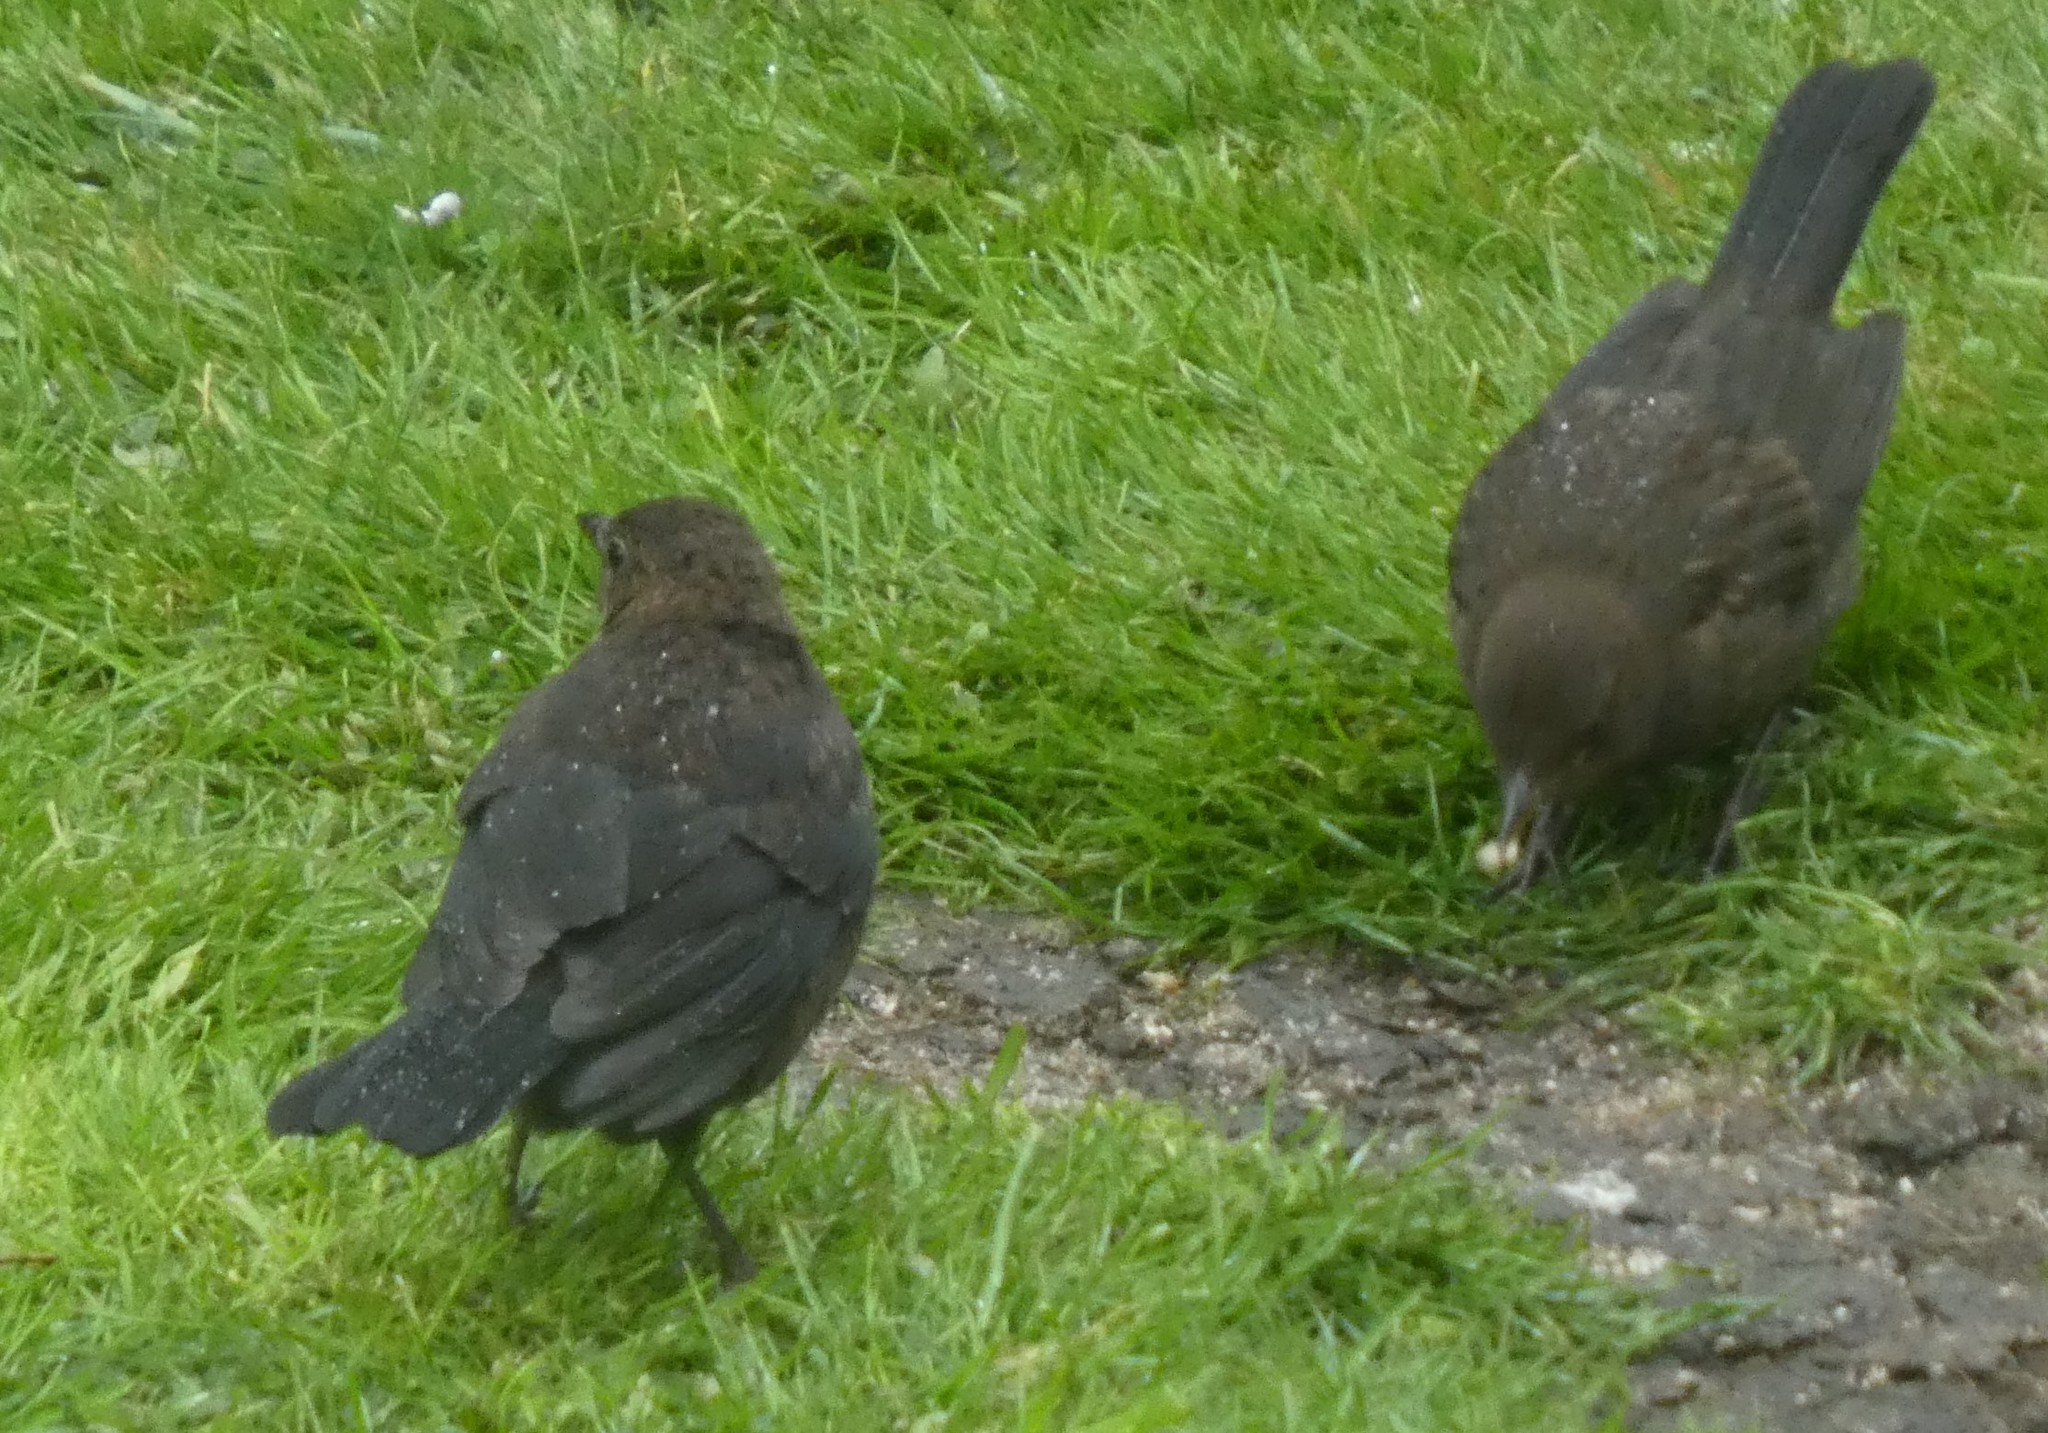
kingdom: Animalia
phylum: Chordata
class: Aves
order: Passeriformes
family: Turdidae
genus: Turdus
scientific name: Turdus merula
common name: Common blackbird
